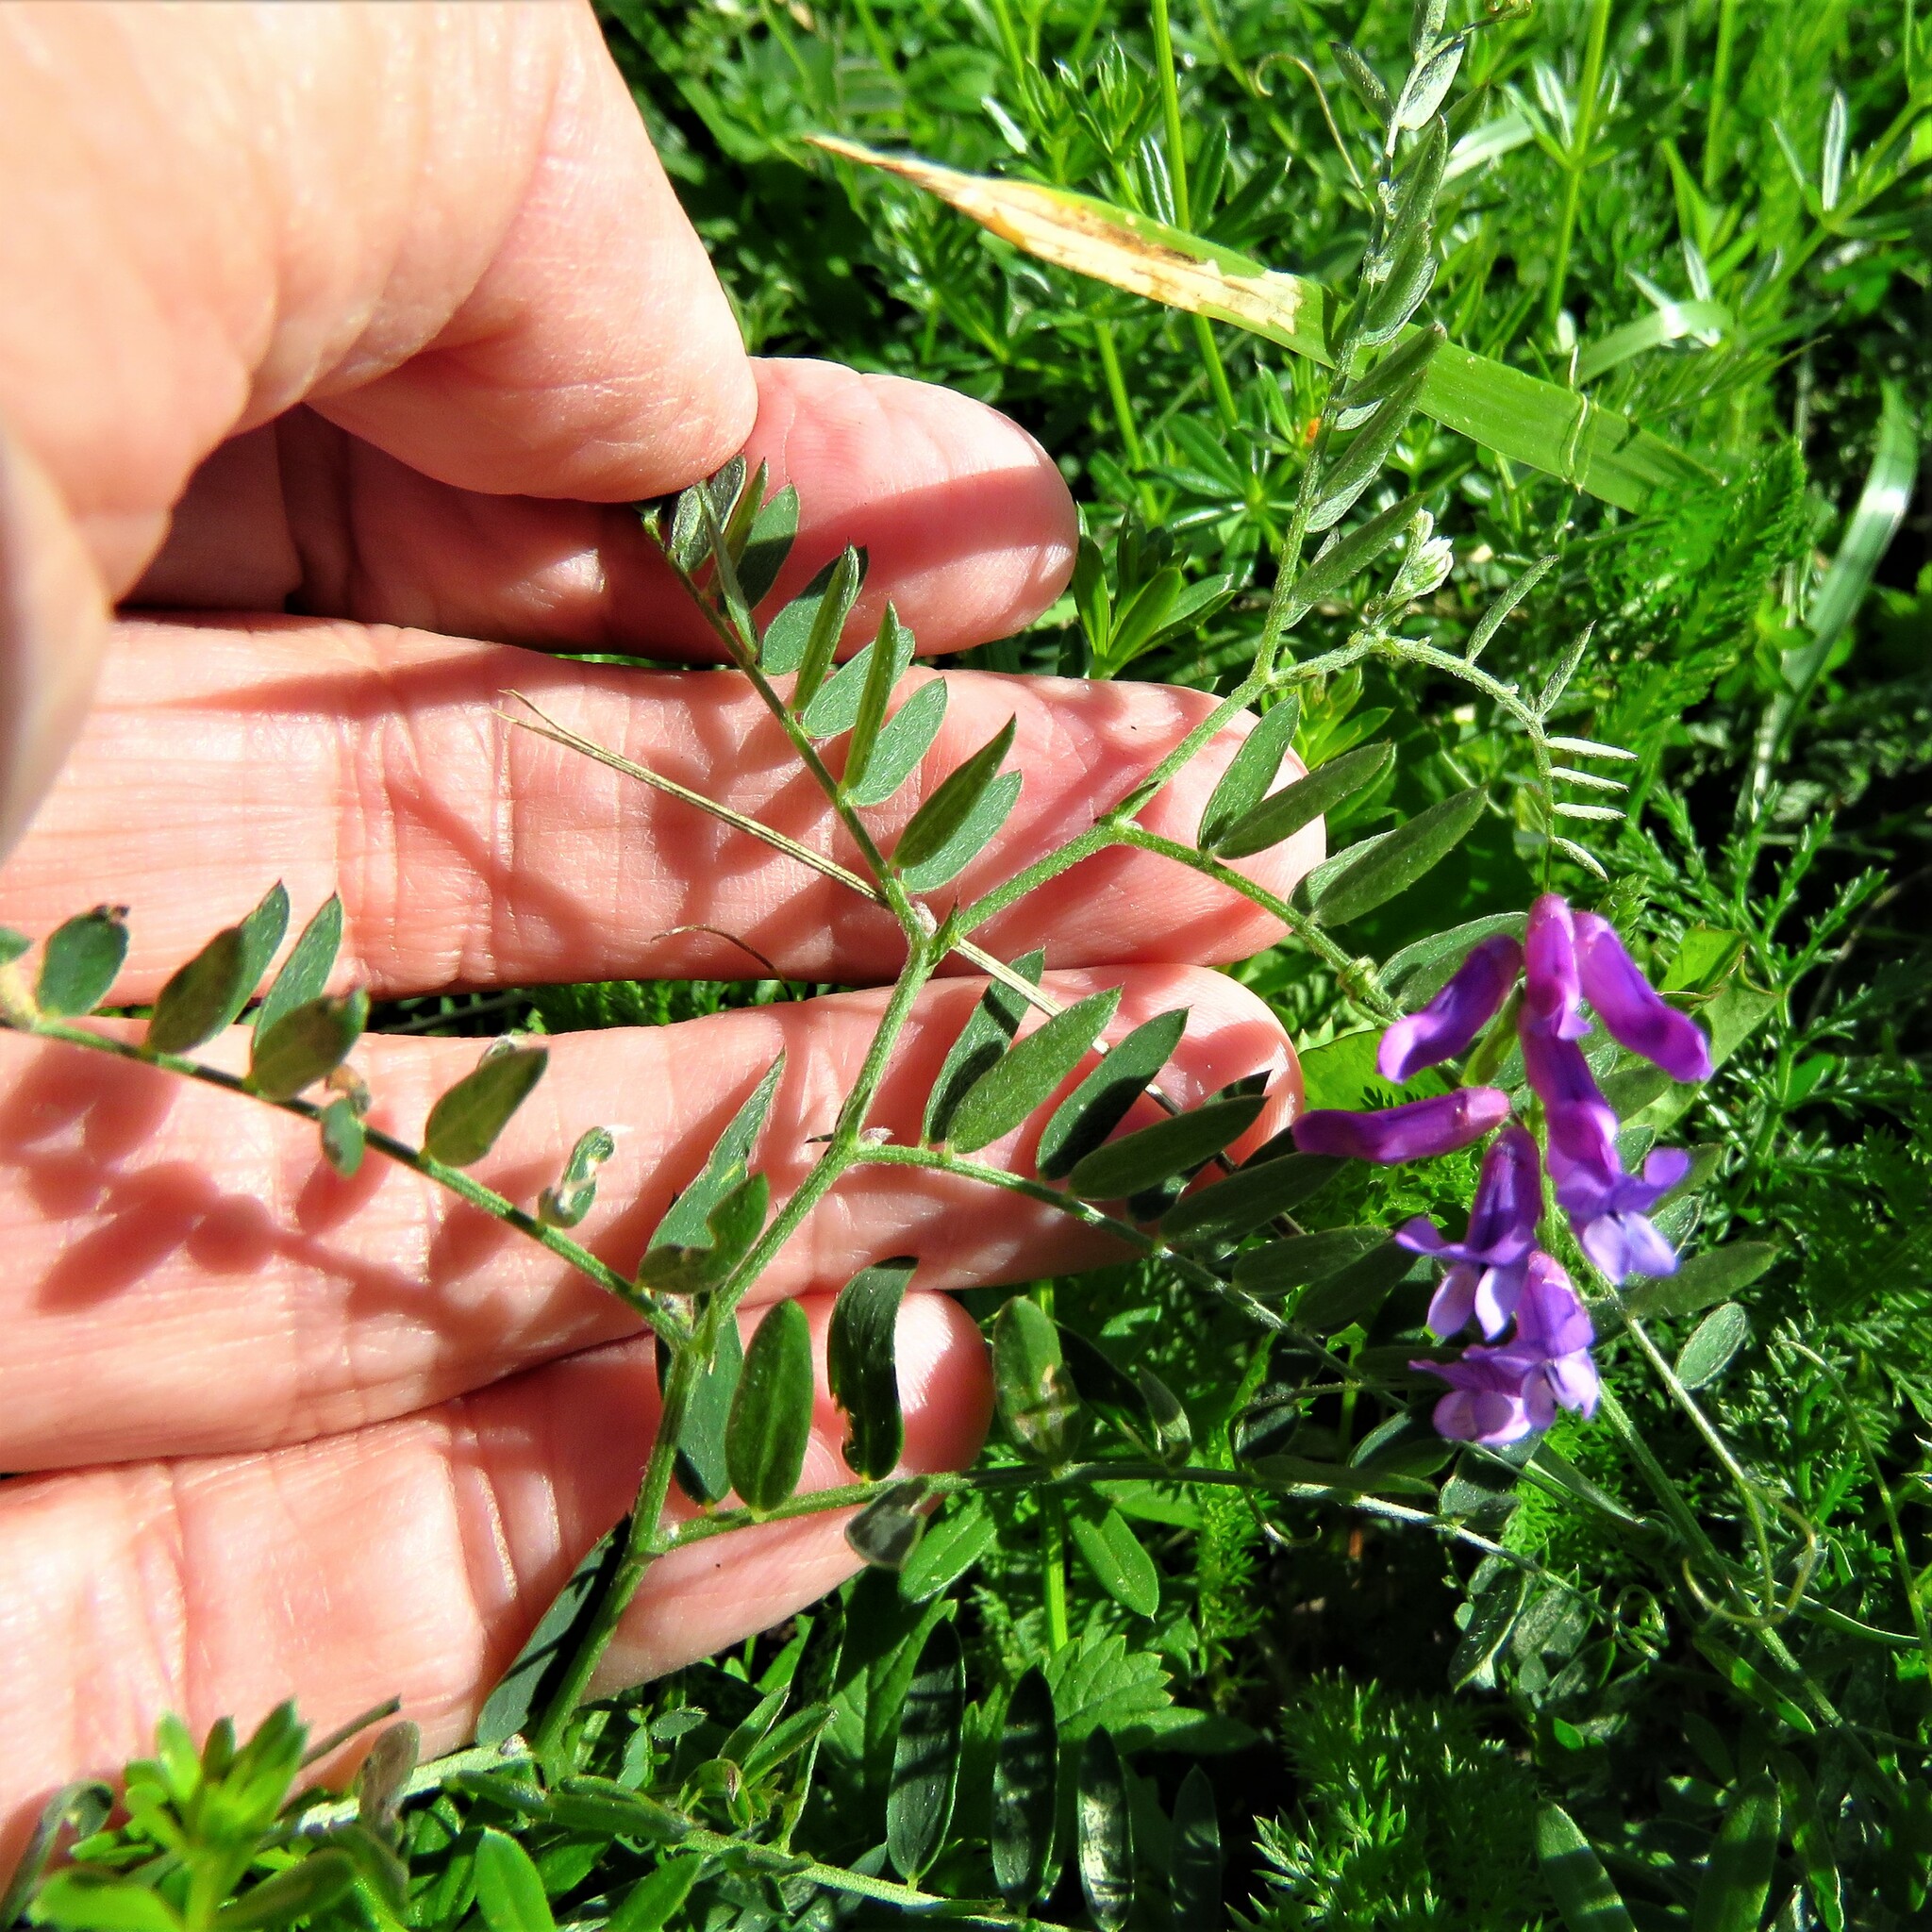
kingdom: Plantae
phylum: Tracheophyta
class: Magnoliopsida
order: Fabales
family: Fabaceae
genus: Vicia
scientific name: Vicia cracca
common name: Bird vetch
